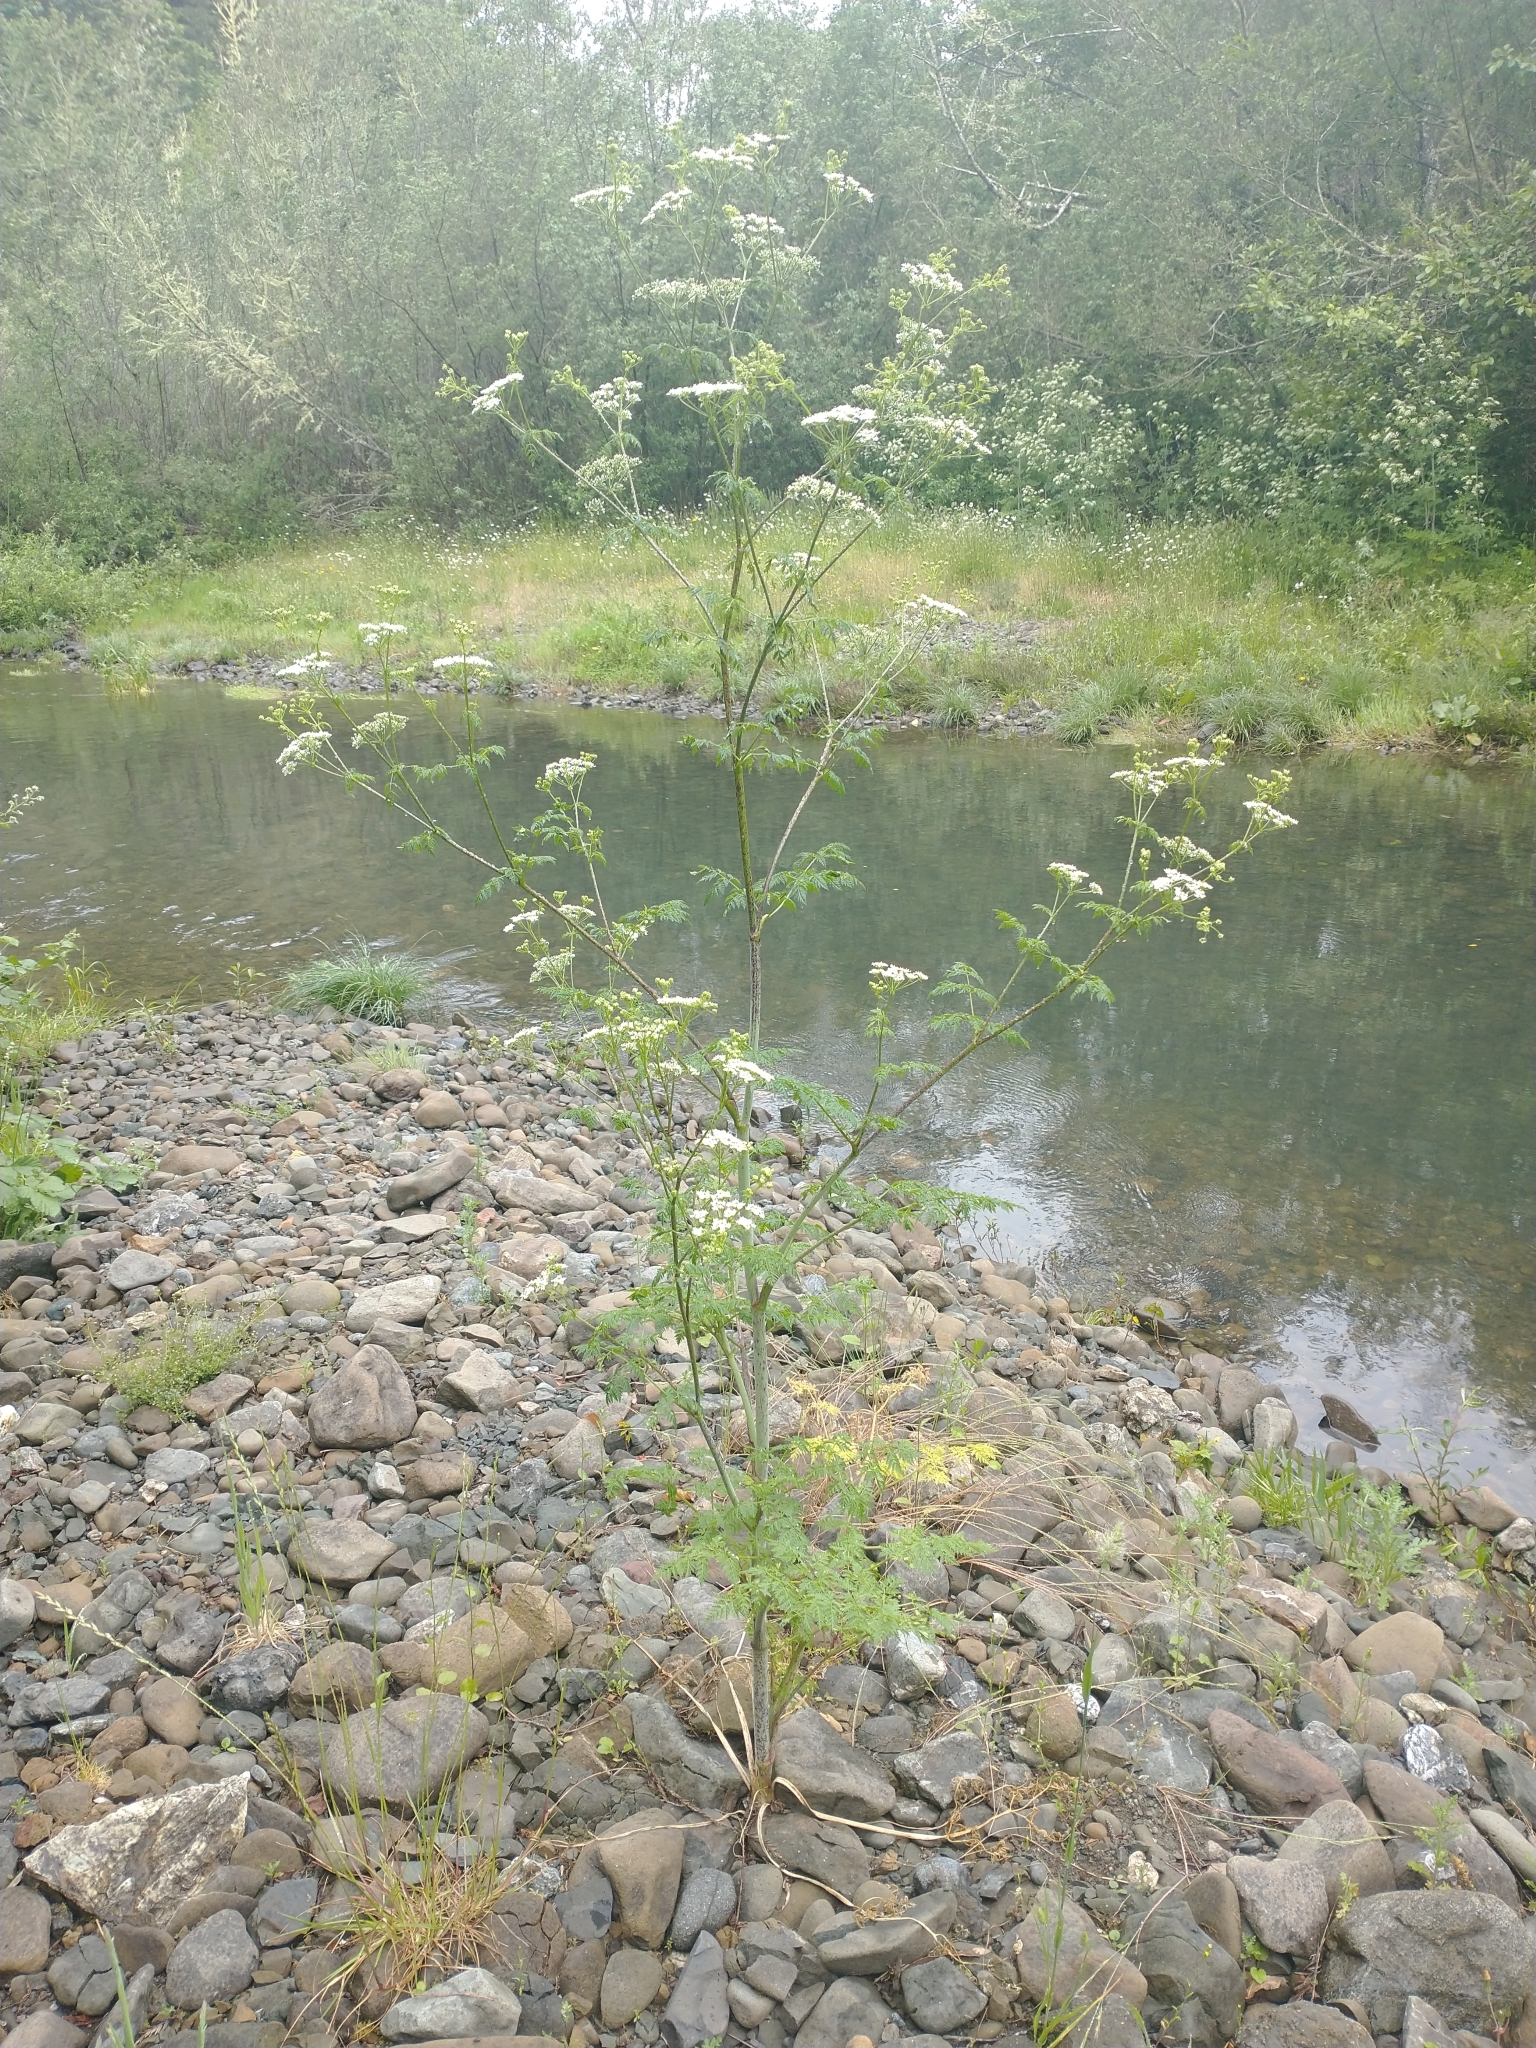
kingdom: Plantae
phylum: Tracheophyta
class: Magnoliopsida
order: Apiales
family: Apiaceae
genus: Conium
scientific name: Conium maculatum
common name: Hemlock
